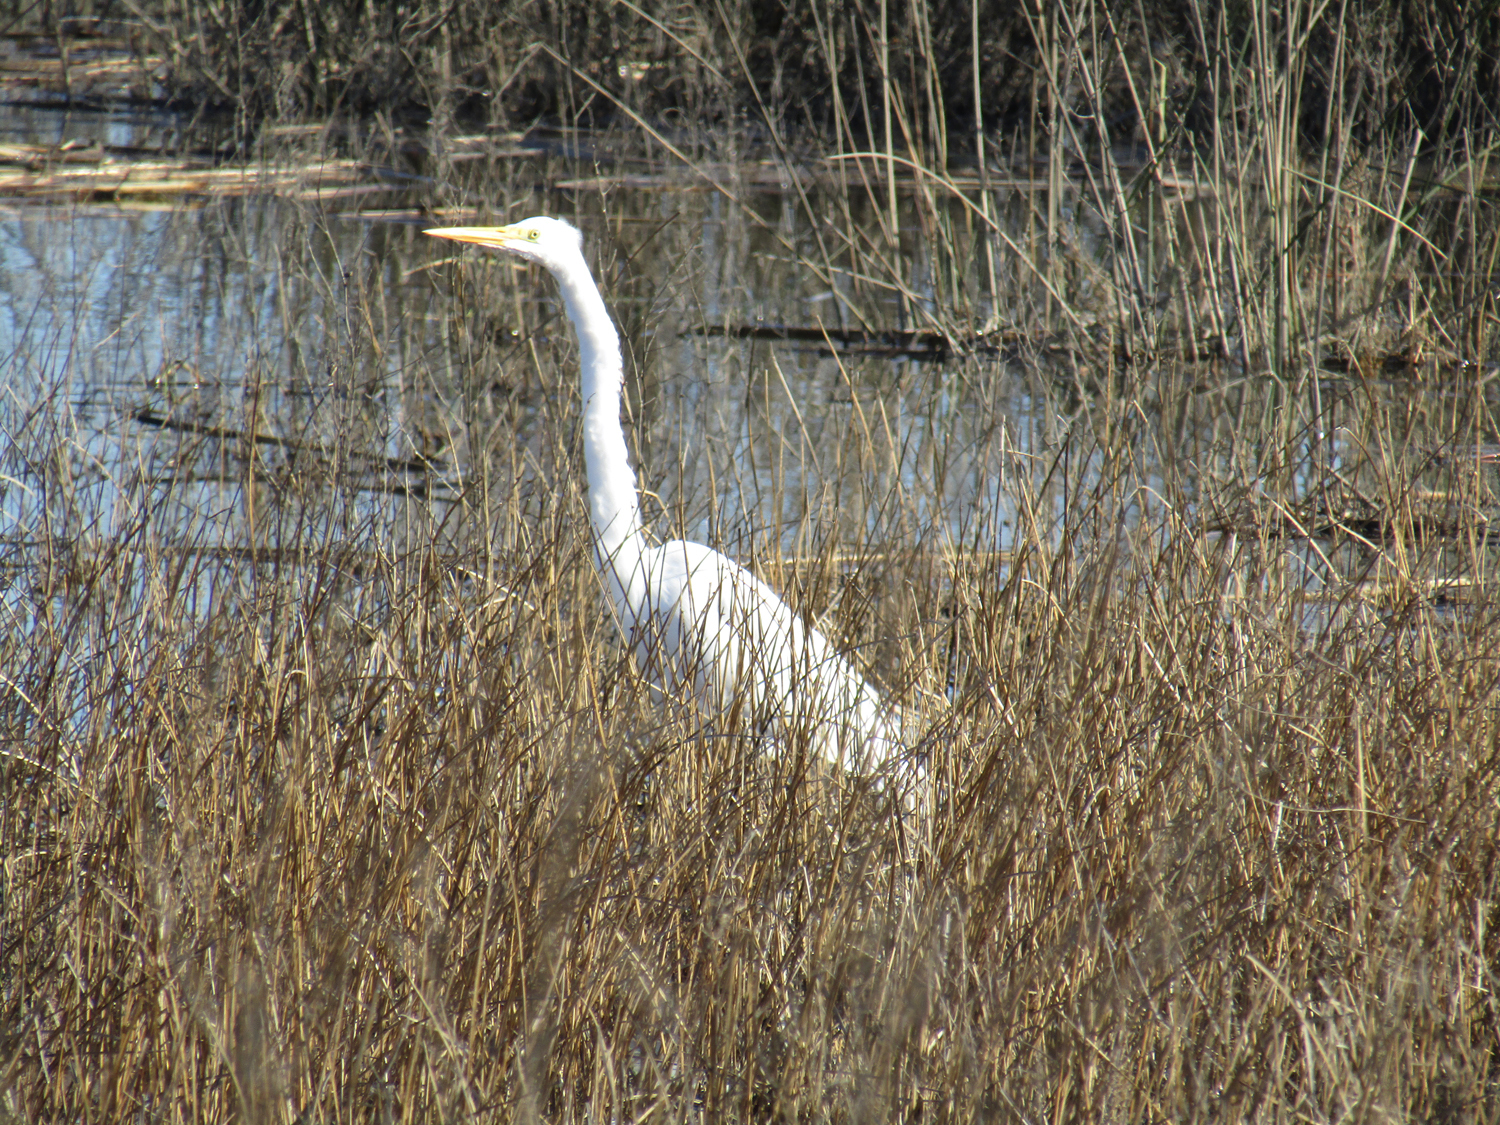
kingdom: Animalia
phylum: Chordata
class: Aves
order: Pelecaniformes
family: Ardeidae
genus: Ardea
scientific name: Ardea alba
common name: Great egret
